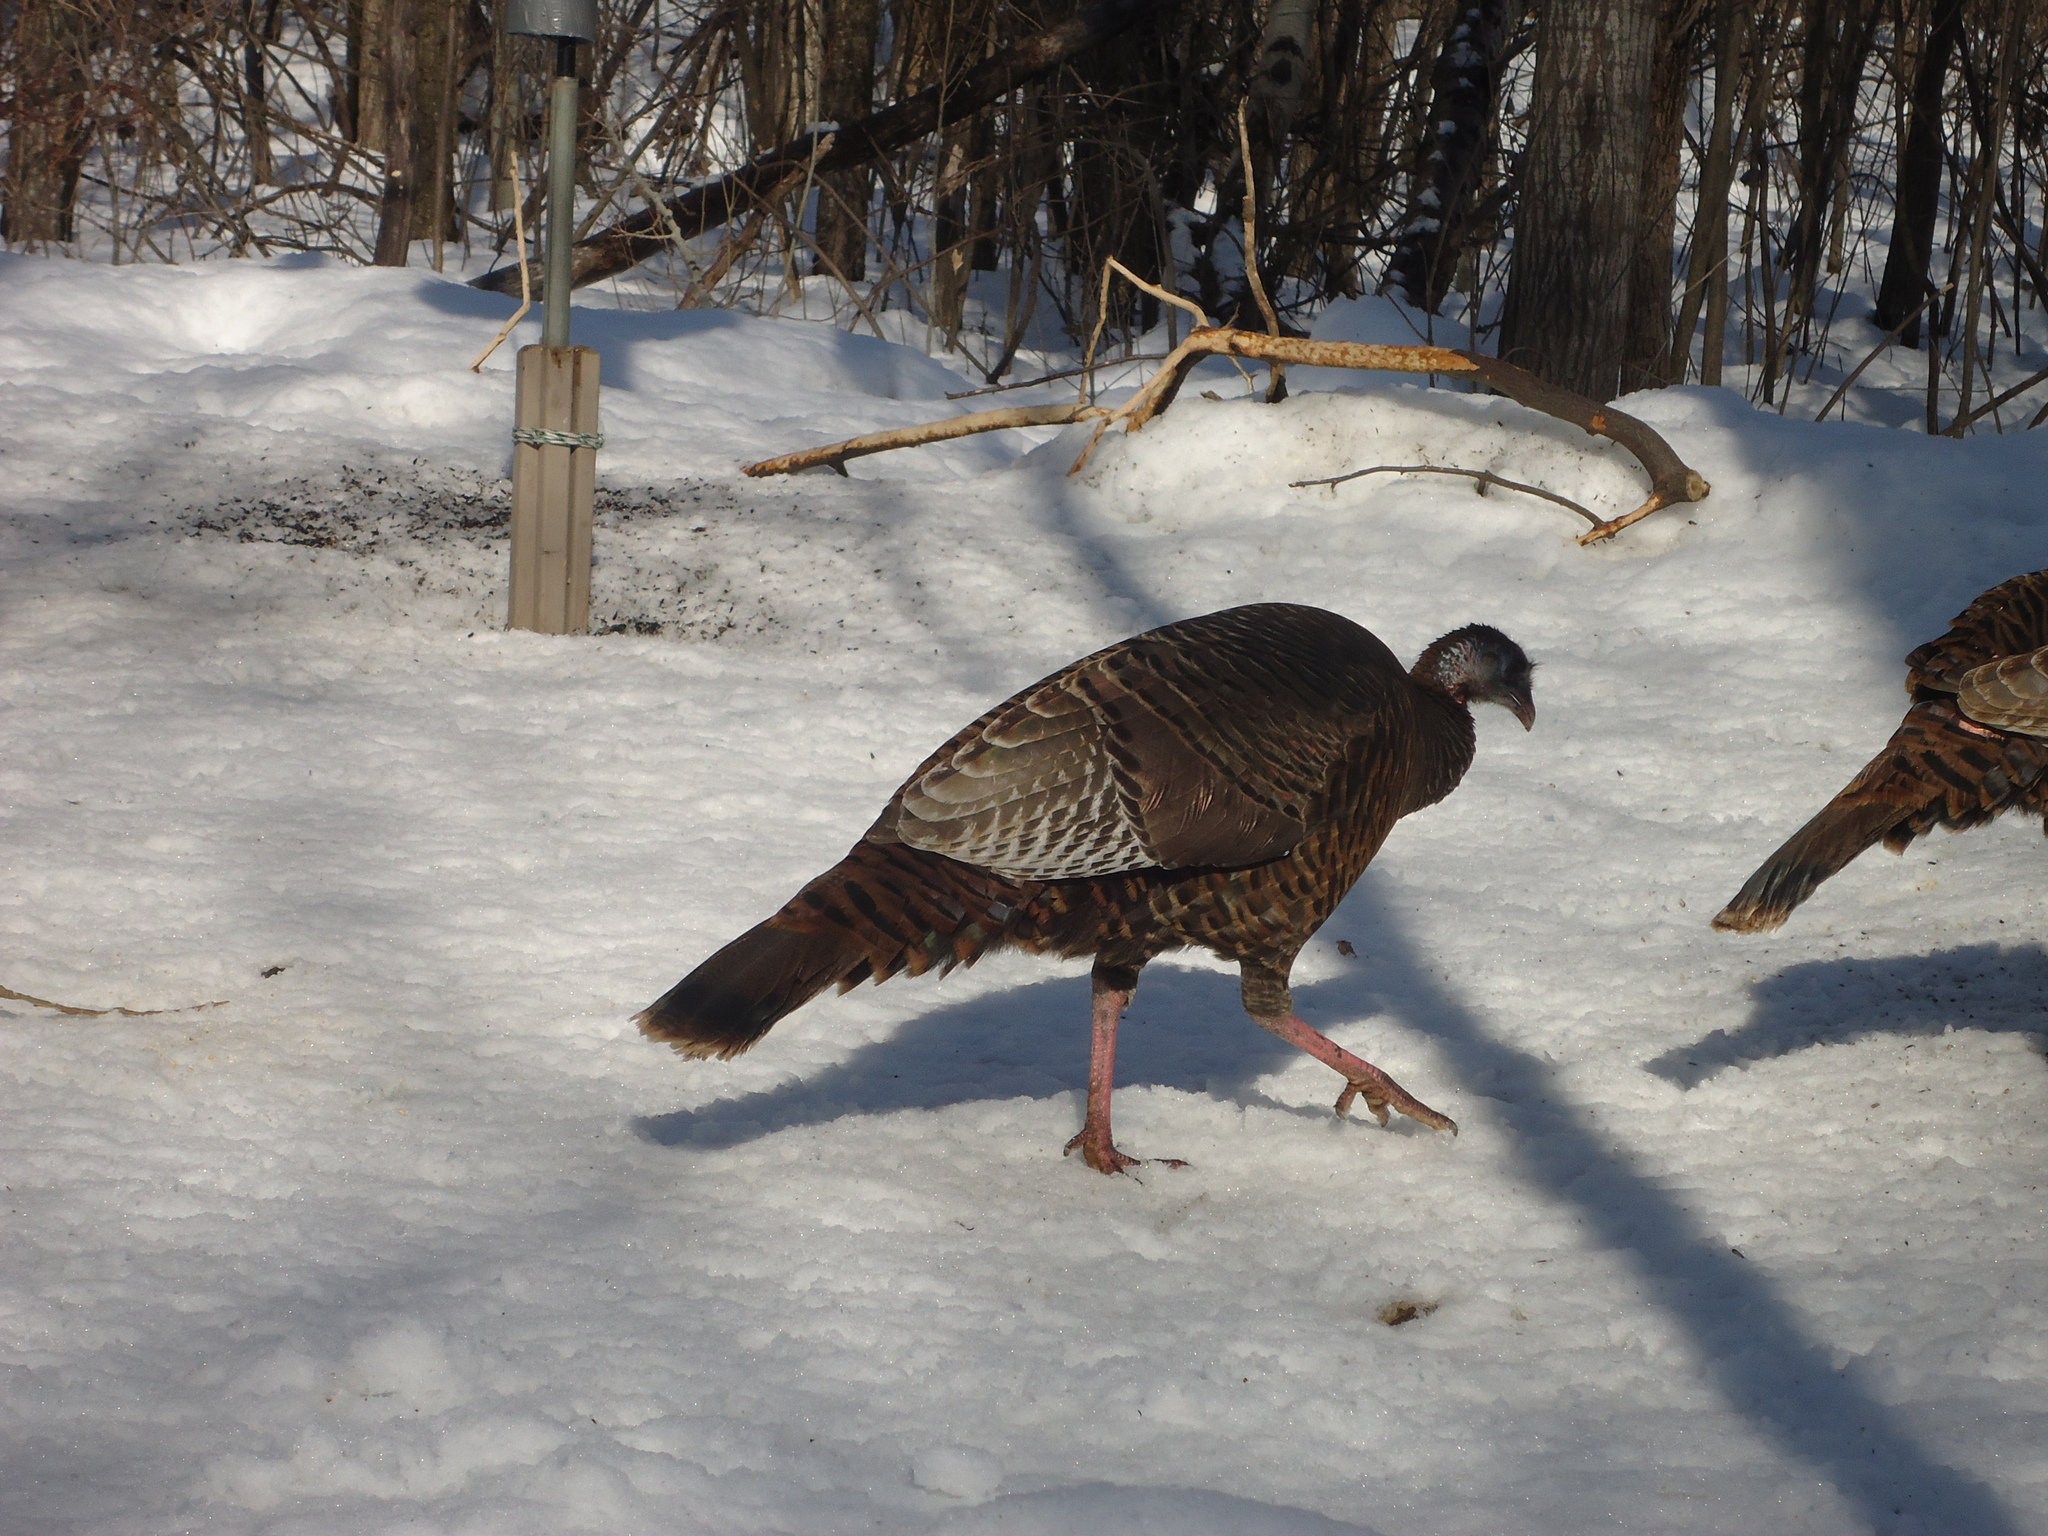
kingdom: Animalia
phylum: Chordata
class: Aves
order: Galliformes
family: Phasianidae
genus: Meleagris
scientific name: Meleagris gallopavo
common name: Wild turkey
